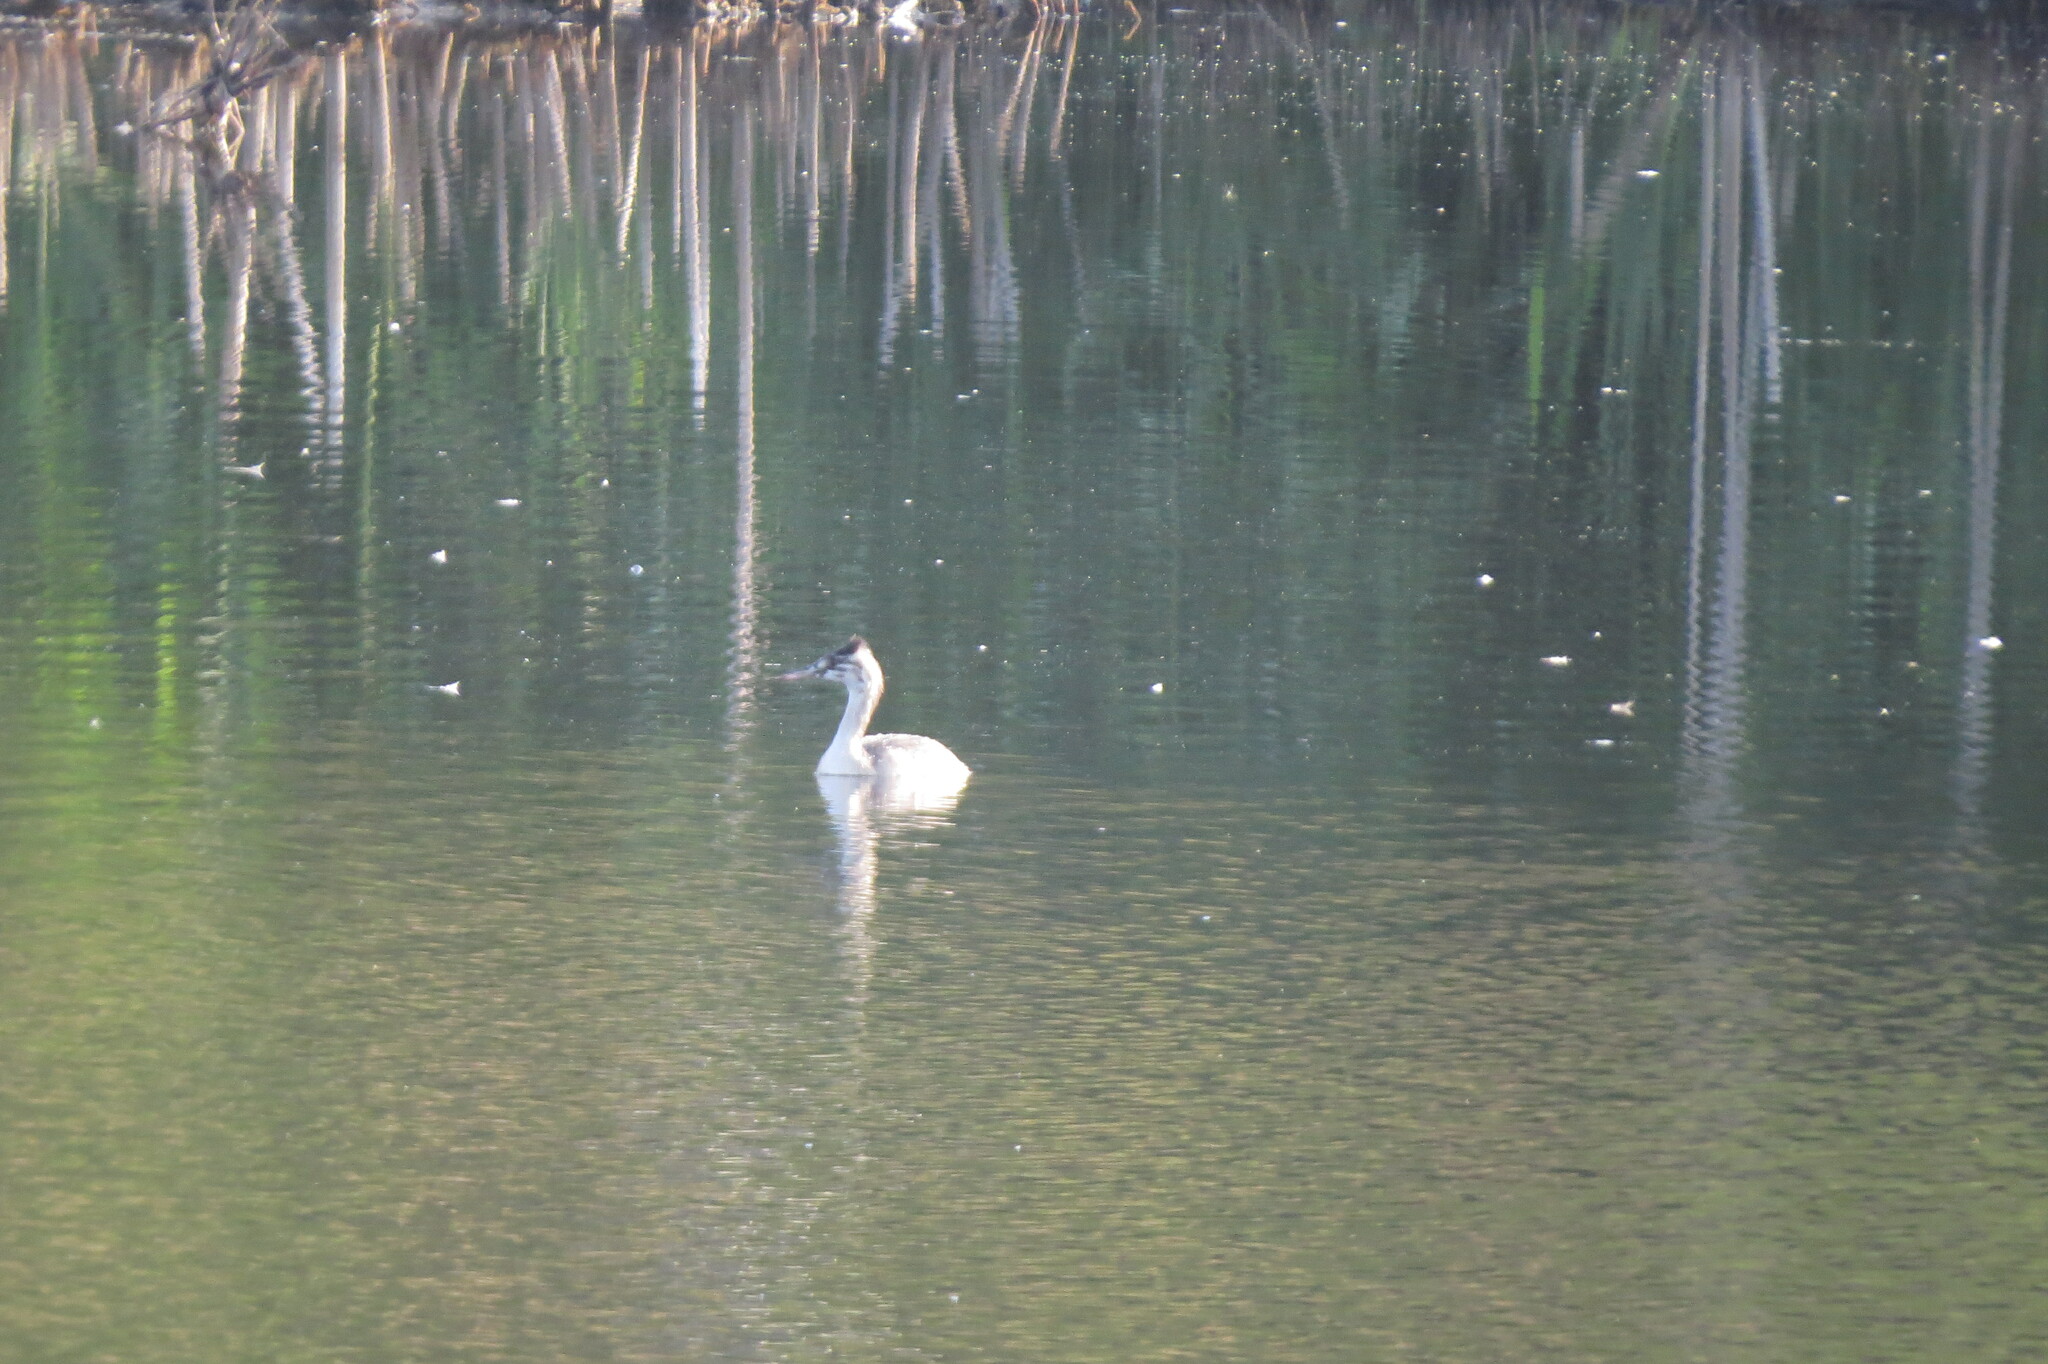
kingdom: Animalia
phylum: Chordata
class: Aves
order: Podicipediformes
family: Podicipedidae
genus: Podiceps
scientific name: Podiceps cristatus
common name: Great crested grebe
